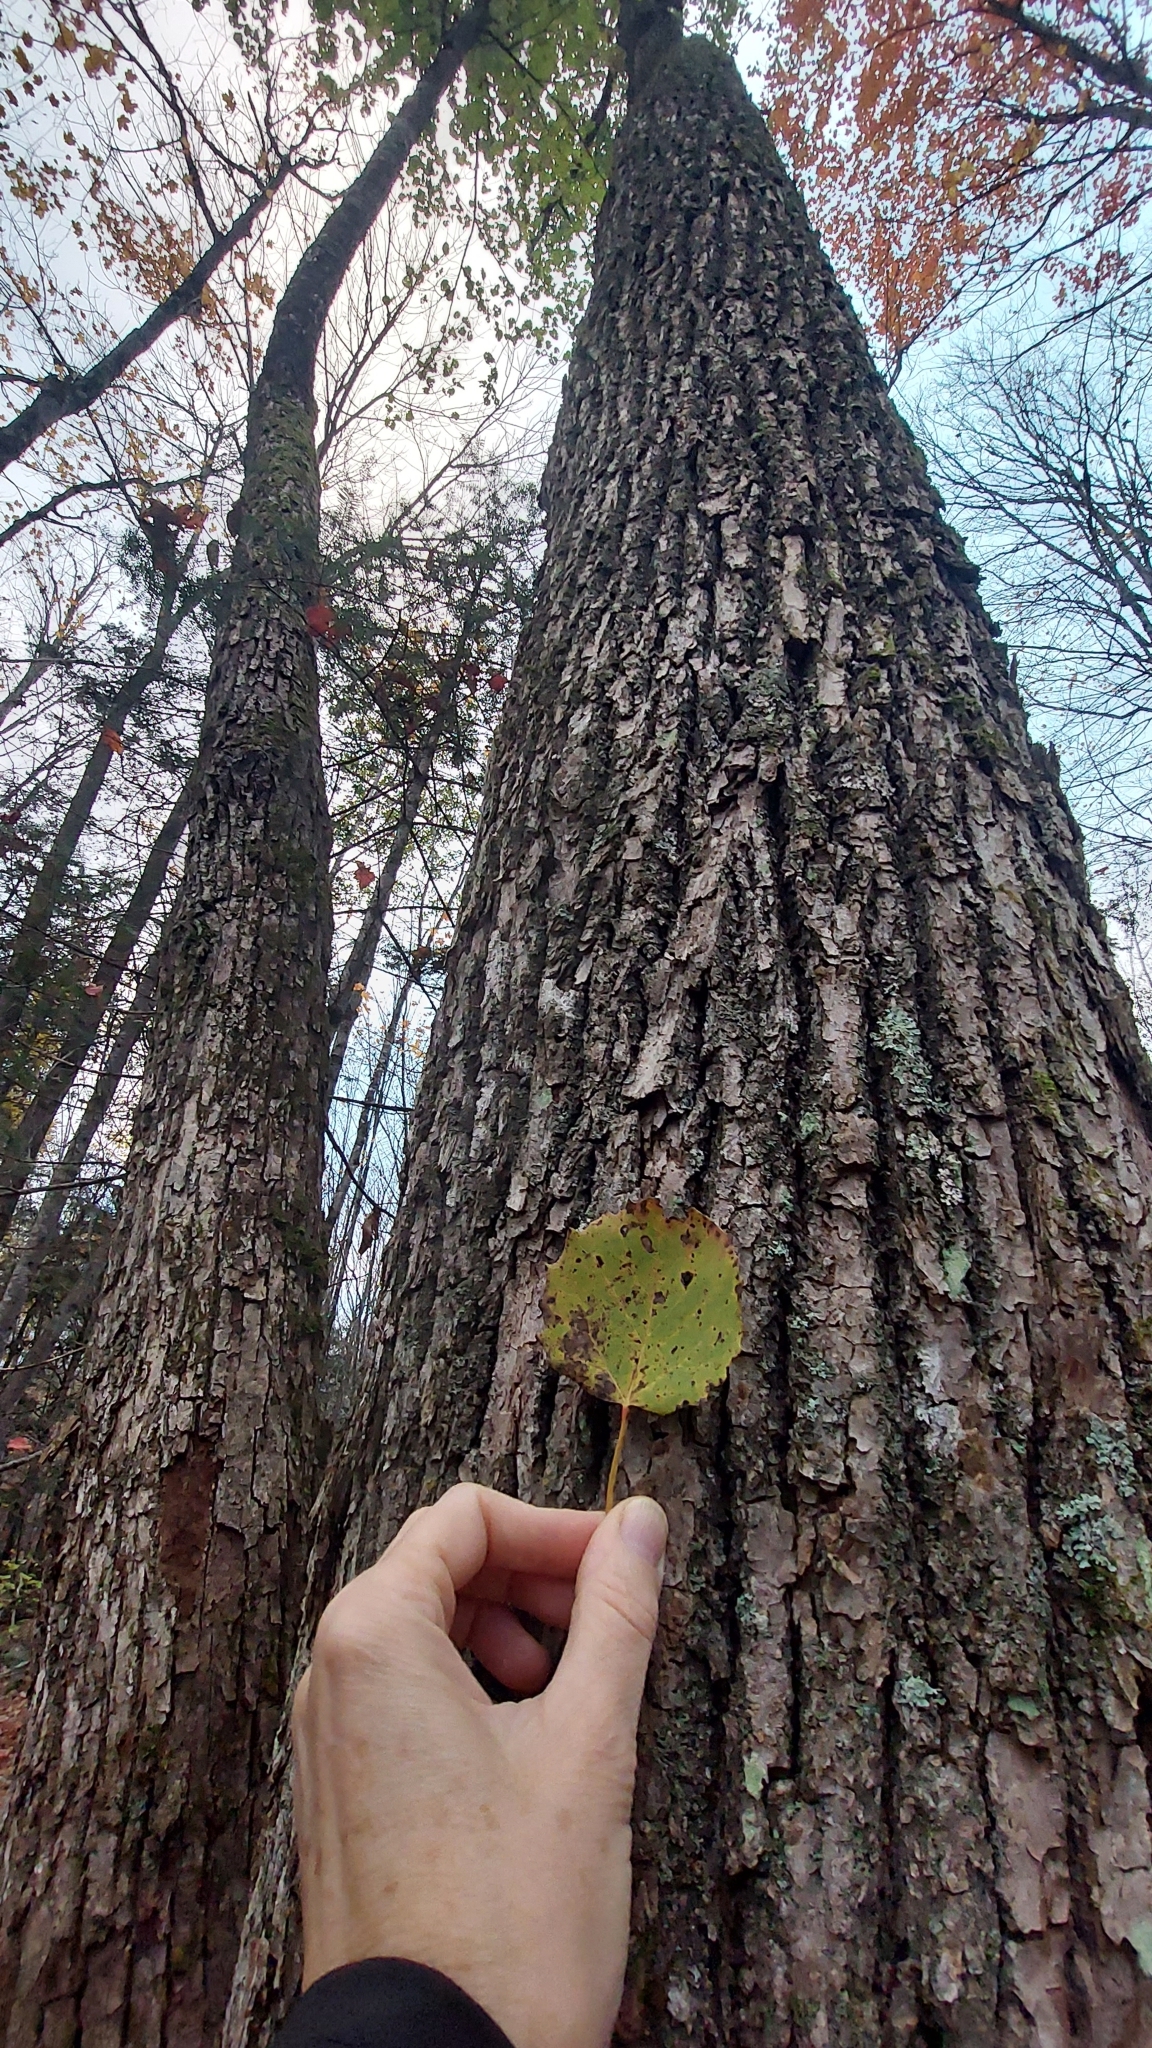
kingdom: Plantae
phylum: Tracheophyta
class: Magnoliopsida
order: Malpighiales
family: Salicaceae
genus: Populus
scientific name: Populus grandidentata
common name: Bigtooth aspen
